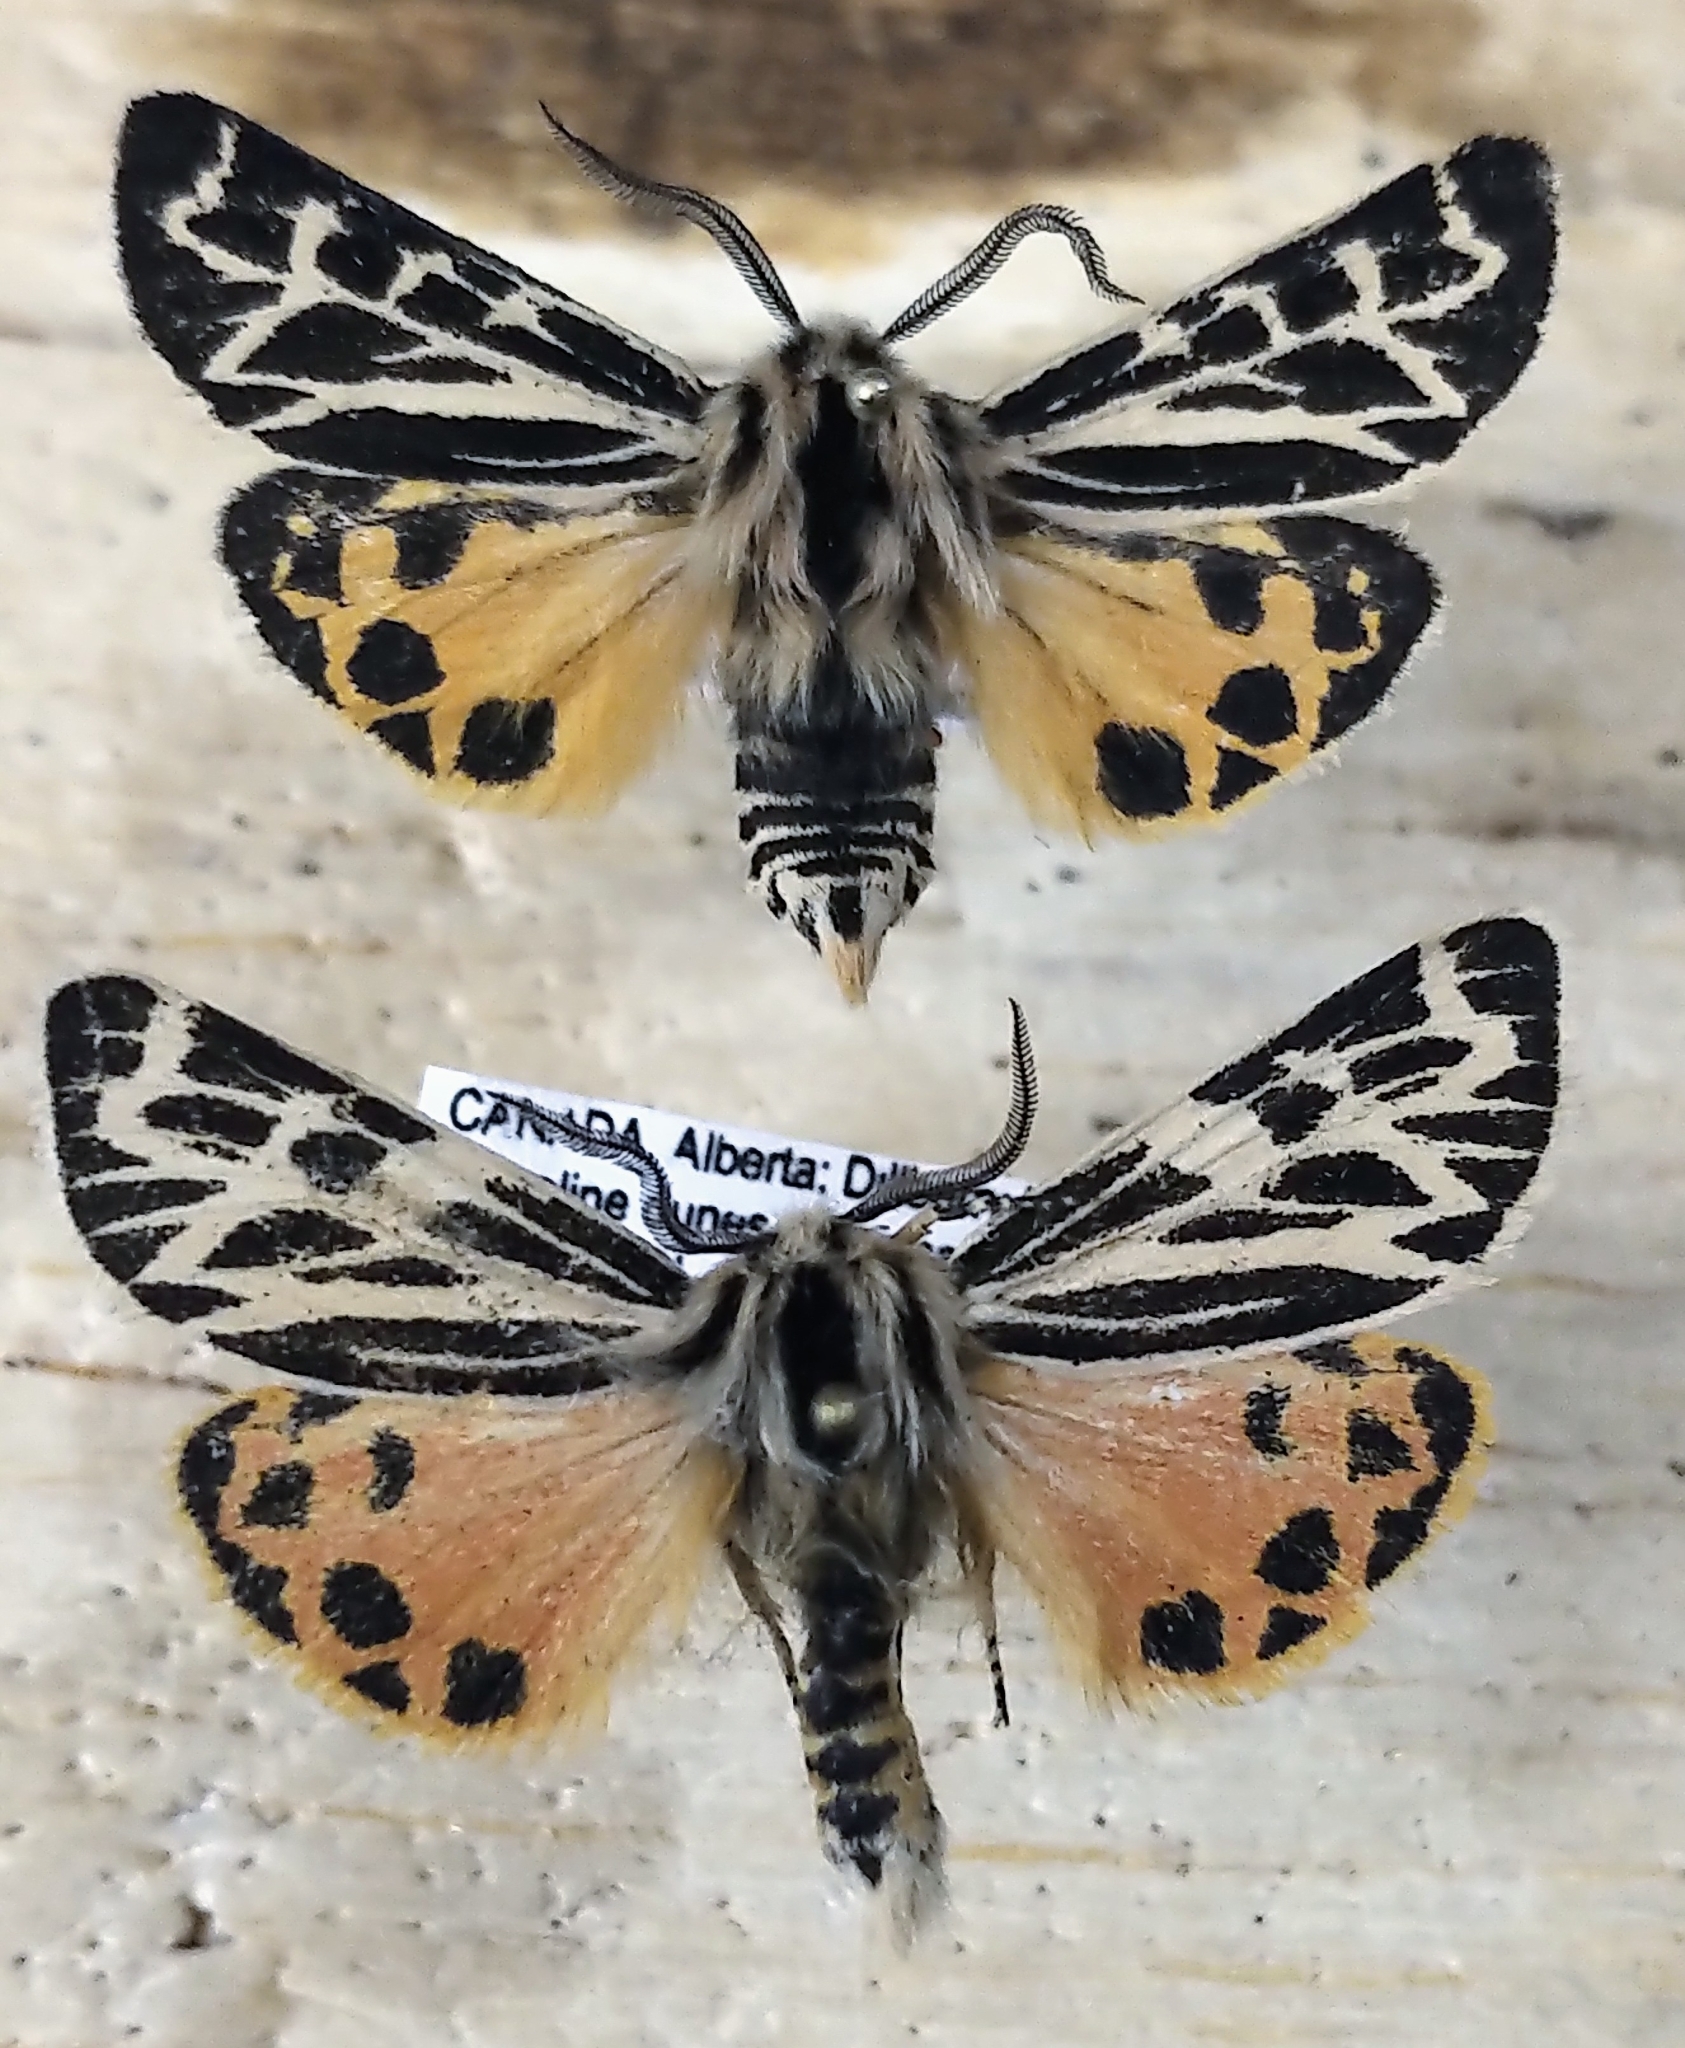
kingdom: Animalia
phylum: Arthropoda
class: Insecta
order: Lepidoptera
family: Erebidae
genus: Apantesis
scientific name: Apantesis obliterata
